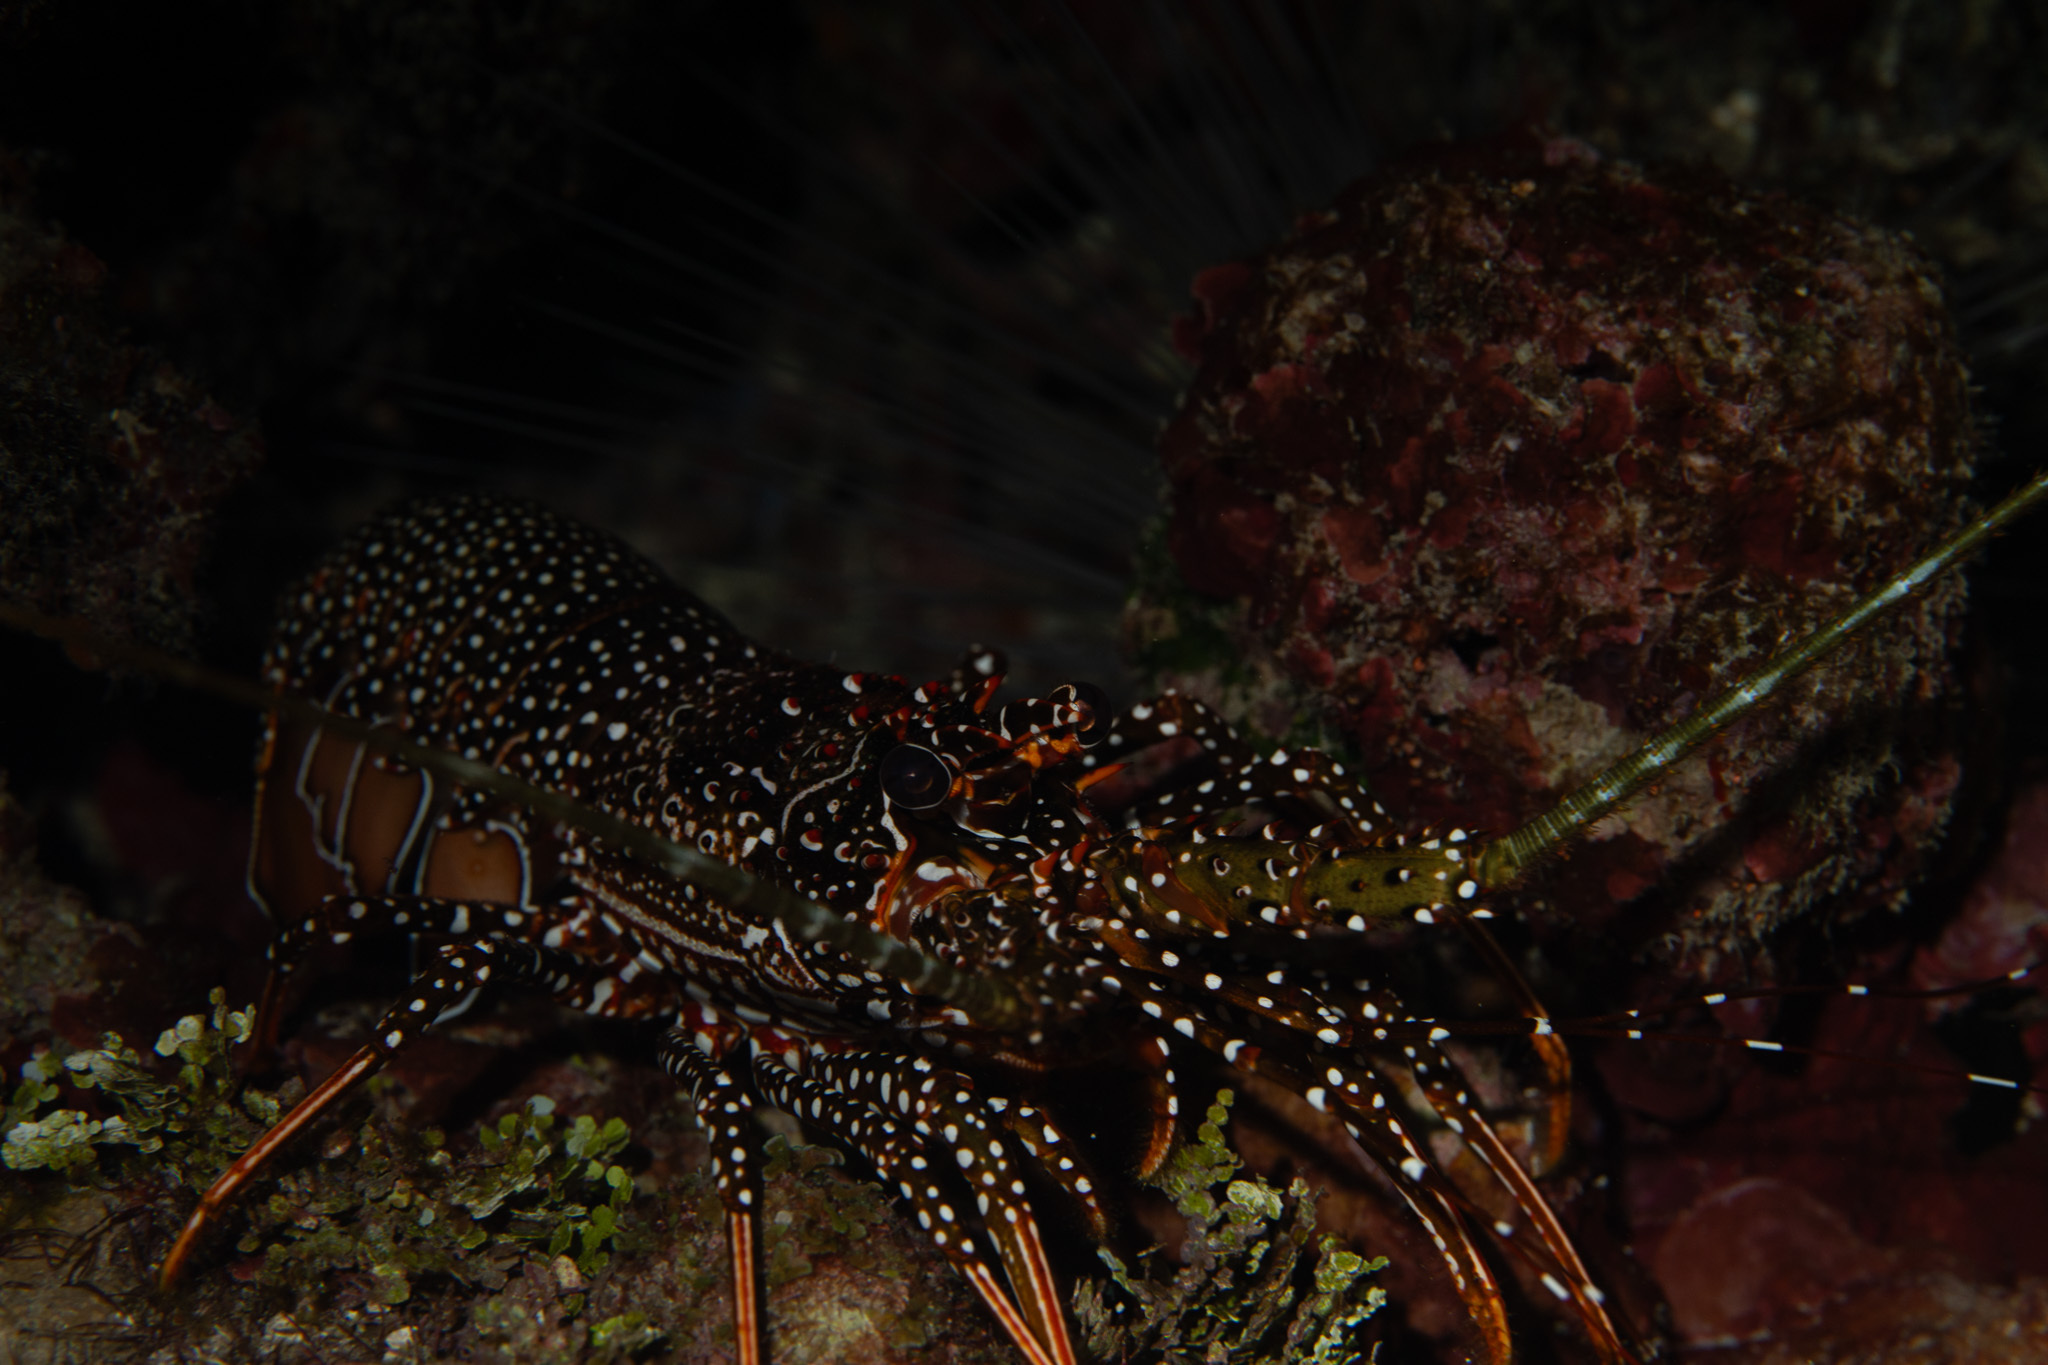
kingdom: Animalia
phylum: Arthropoda
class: Malacostraca
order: Decapoda
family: Palinuridae
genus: Panulirus
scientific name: Panulirus guttatus
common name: Spotted spiny lobster
